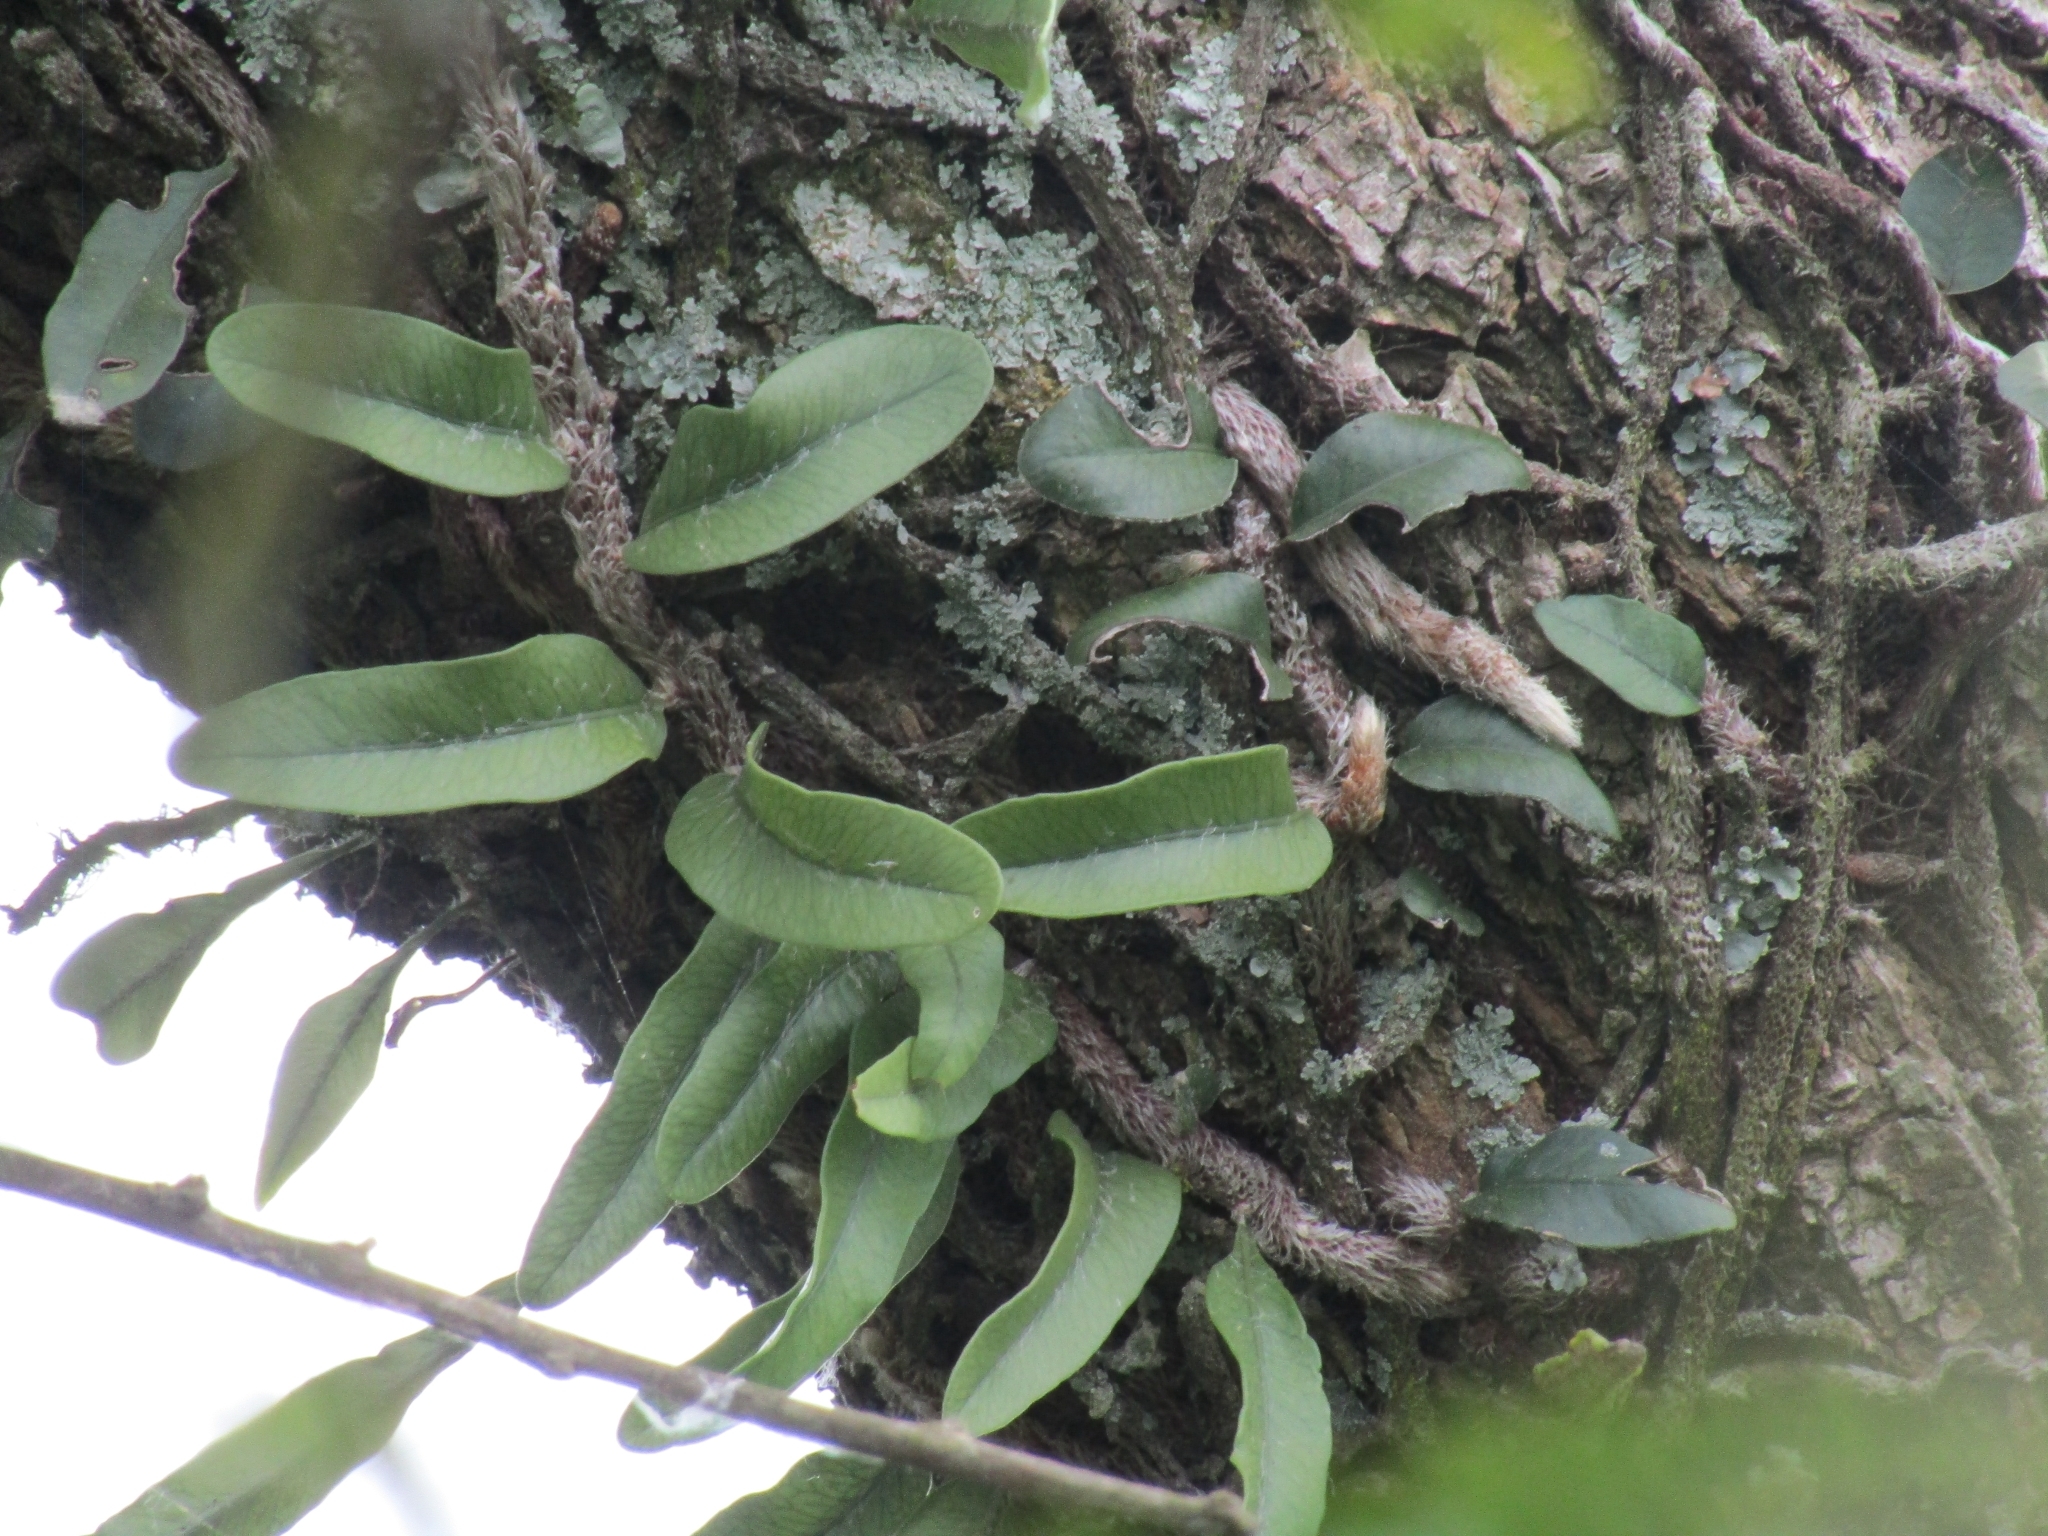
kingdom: Plantae
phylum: Tracheophyta
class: Polypodiopsida
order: Polypodiales
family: Polypodiaceae
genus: Microgramma
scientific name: Microgramma mortoniana
